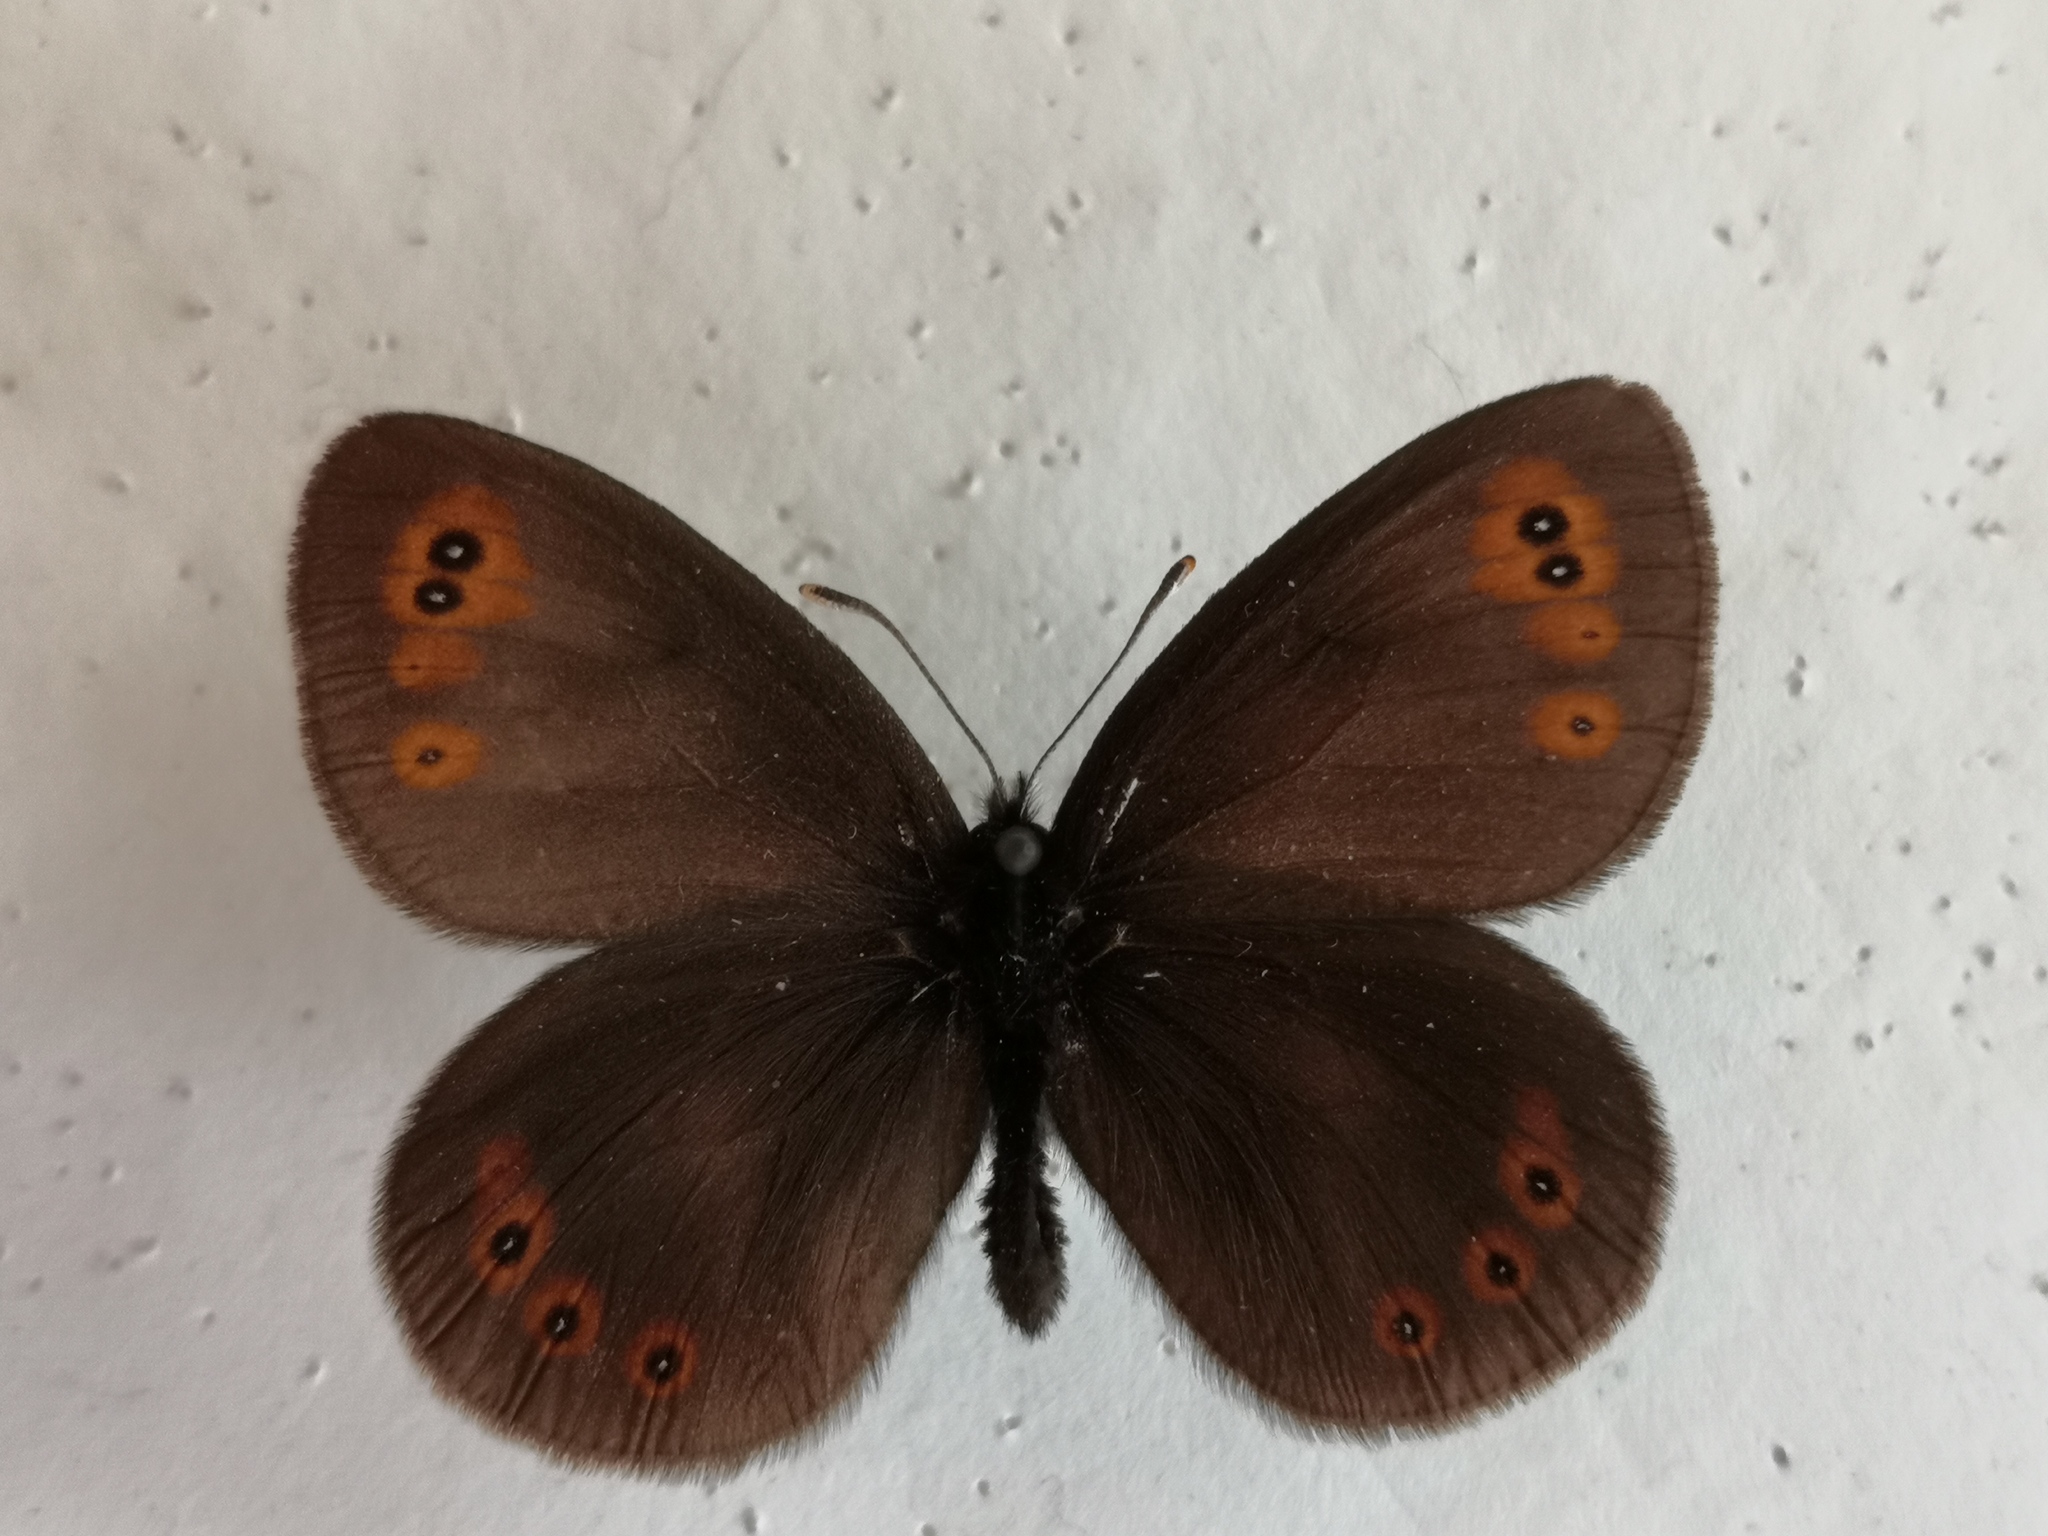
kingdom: Animalia
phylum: Arthropoda
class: Insecta
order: Lepidoptera
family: Nymphalidae
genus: Erebia
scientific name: Erebia medusa
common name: Woodland ringlet
